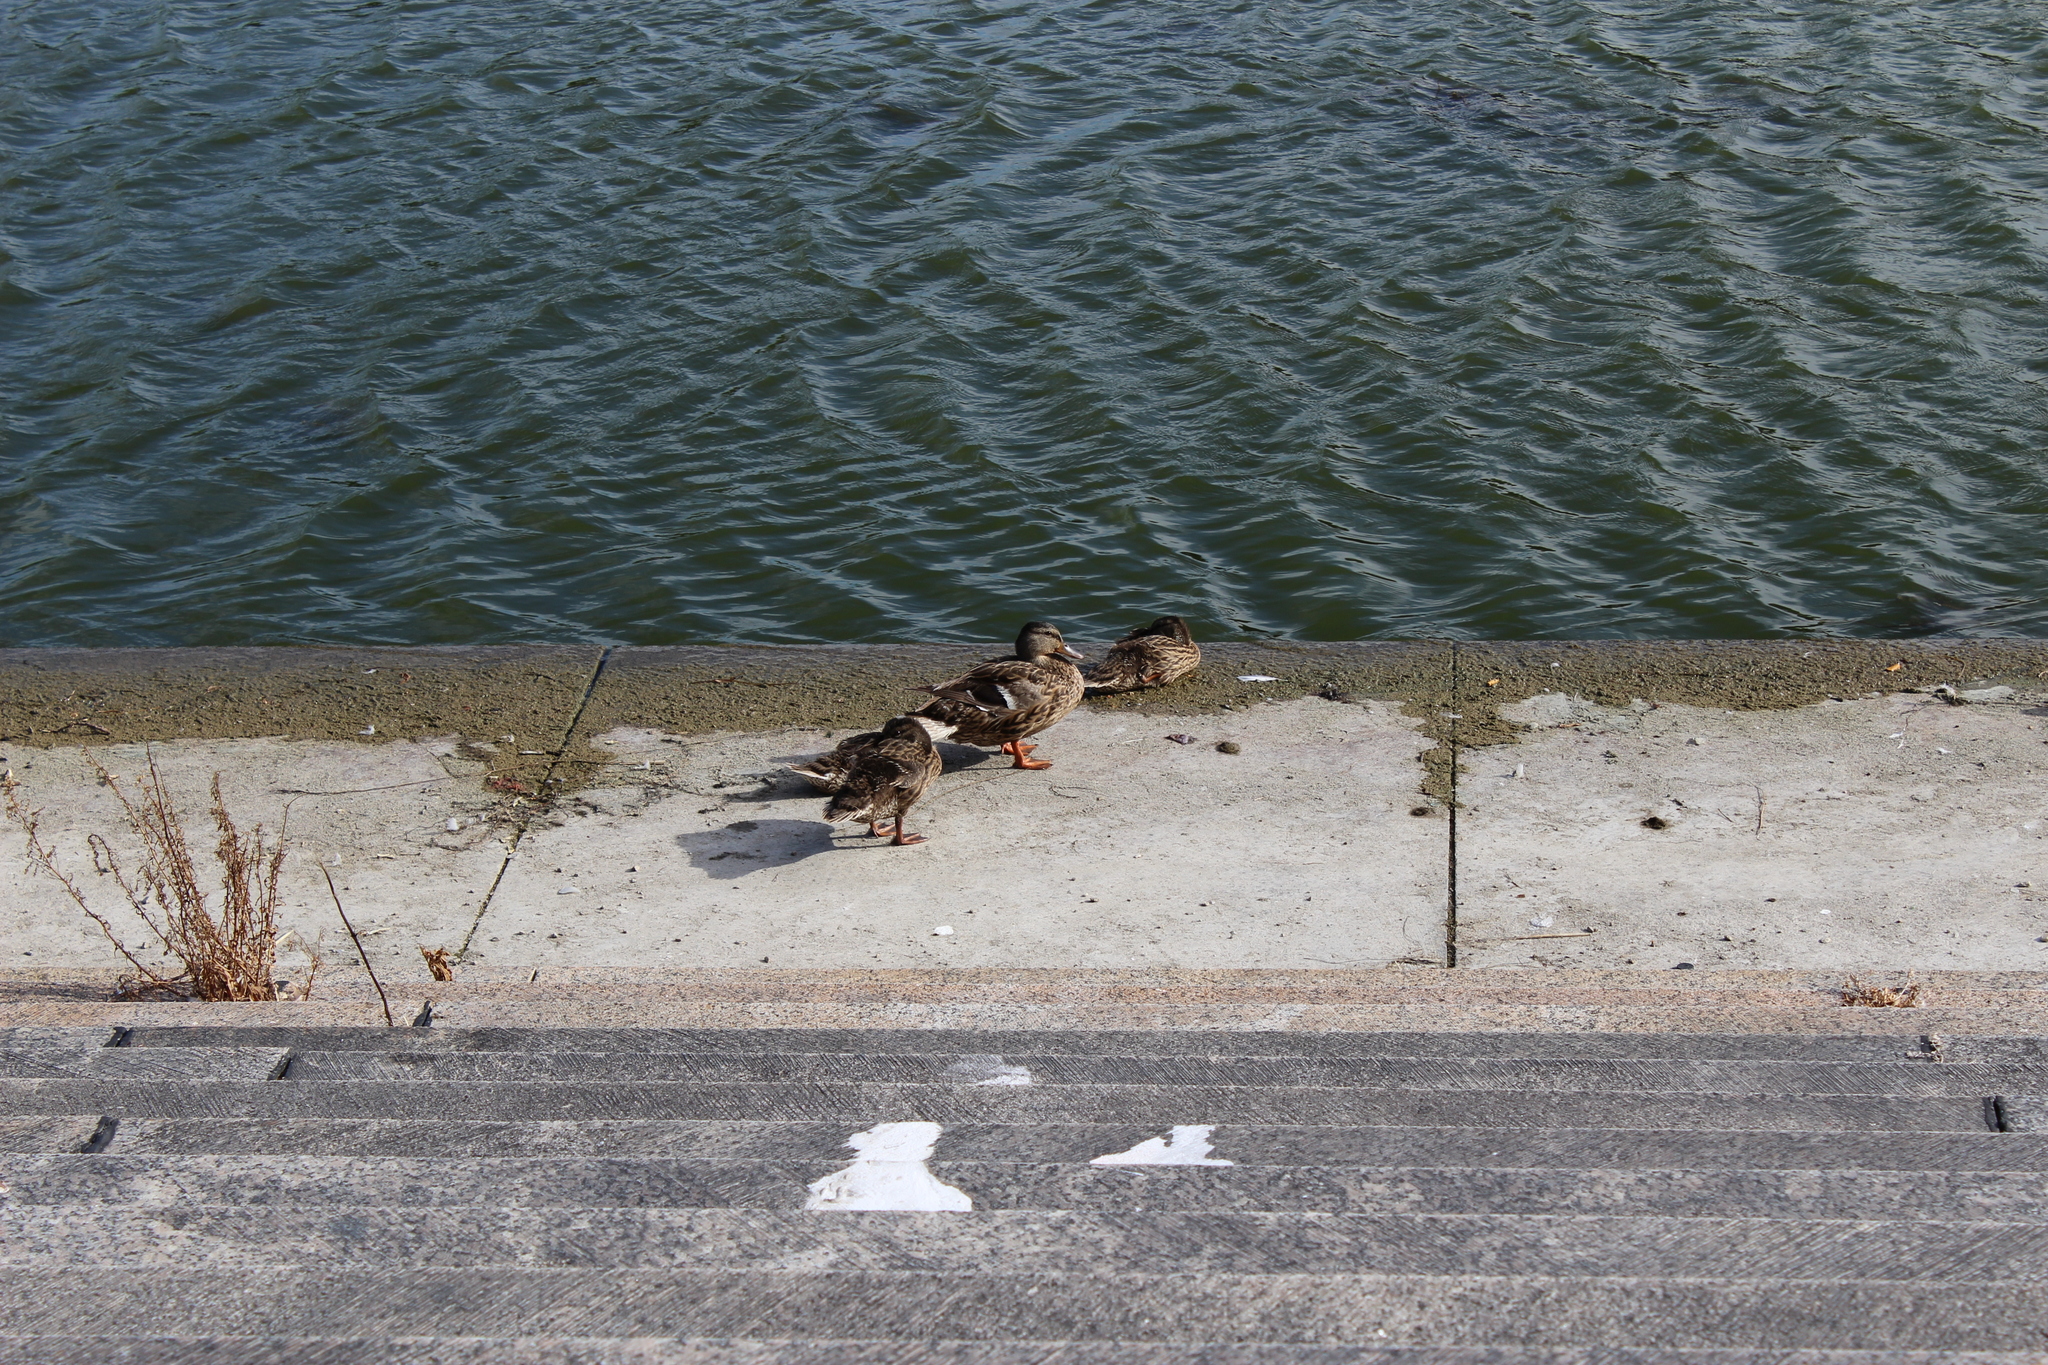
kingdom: Animalia
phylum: Chordata
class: Aves
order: Anseriformes
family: Anatidae
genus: Anas
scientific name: Anas platyrhynchos
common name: Mallard
